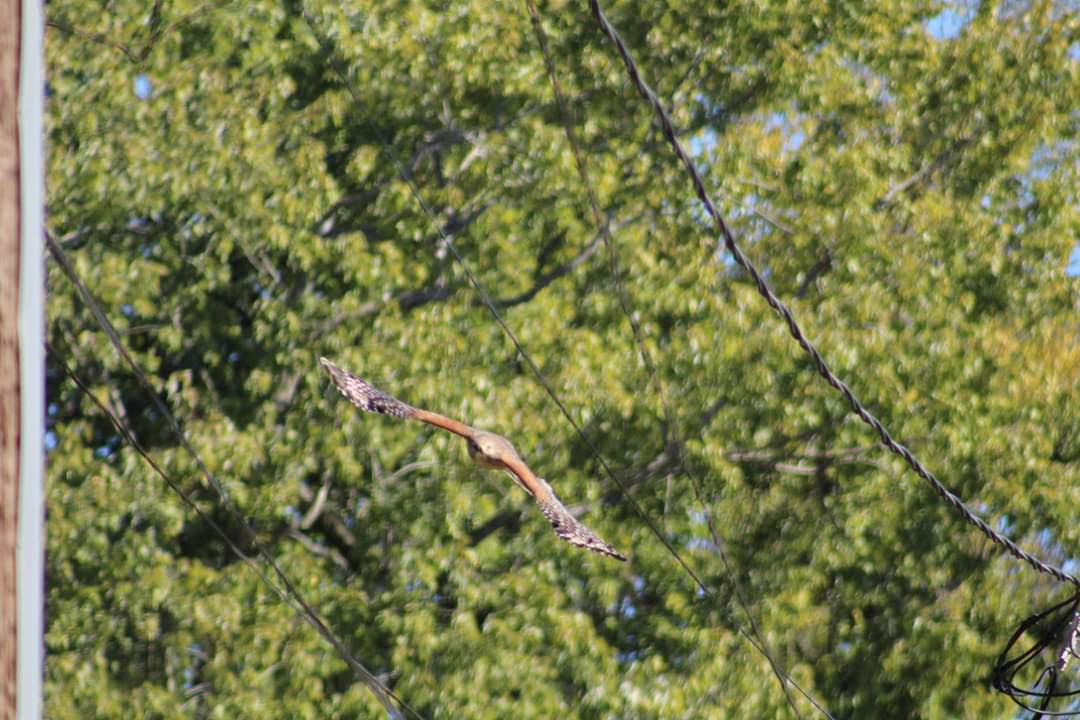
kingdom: Animalia
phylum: Chordata
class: Aves
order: Accipitriformes
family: Accipitridae
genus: Buteo
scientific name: Buteo lineatus
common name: Red-shouldered hawk
